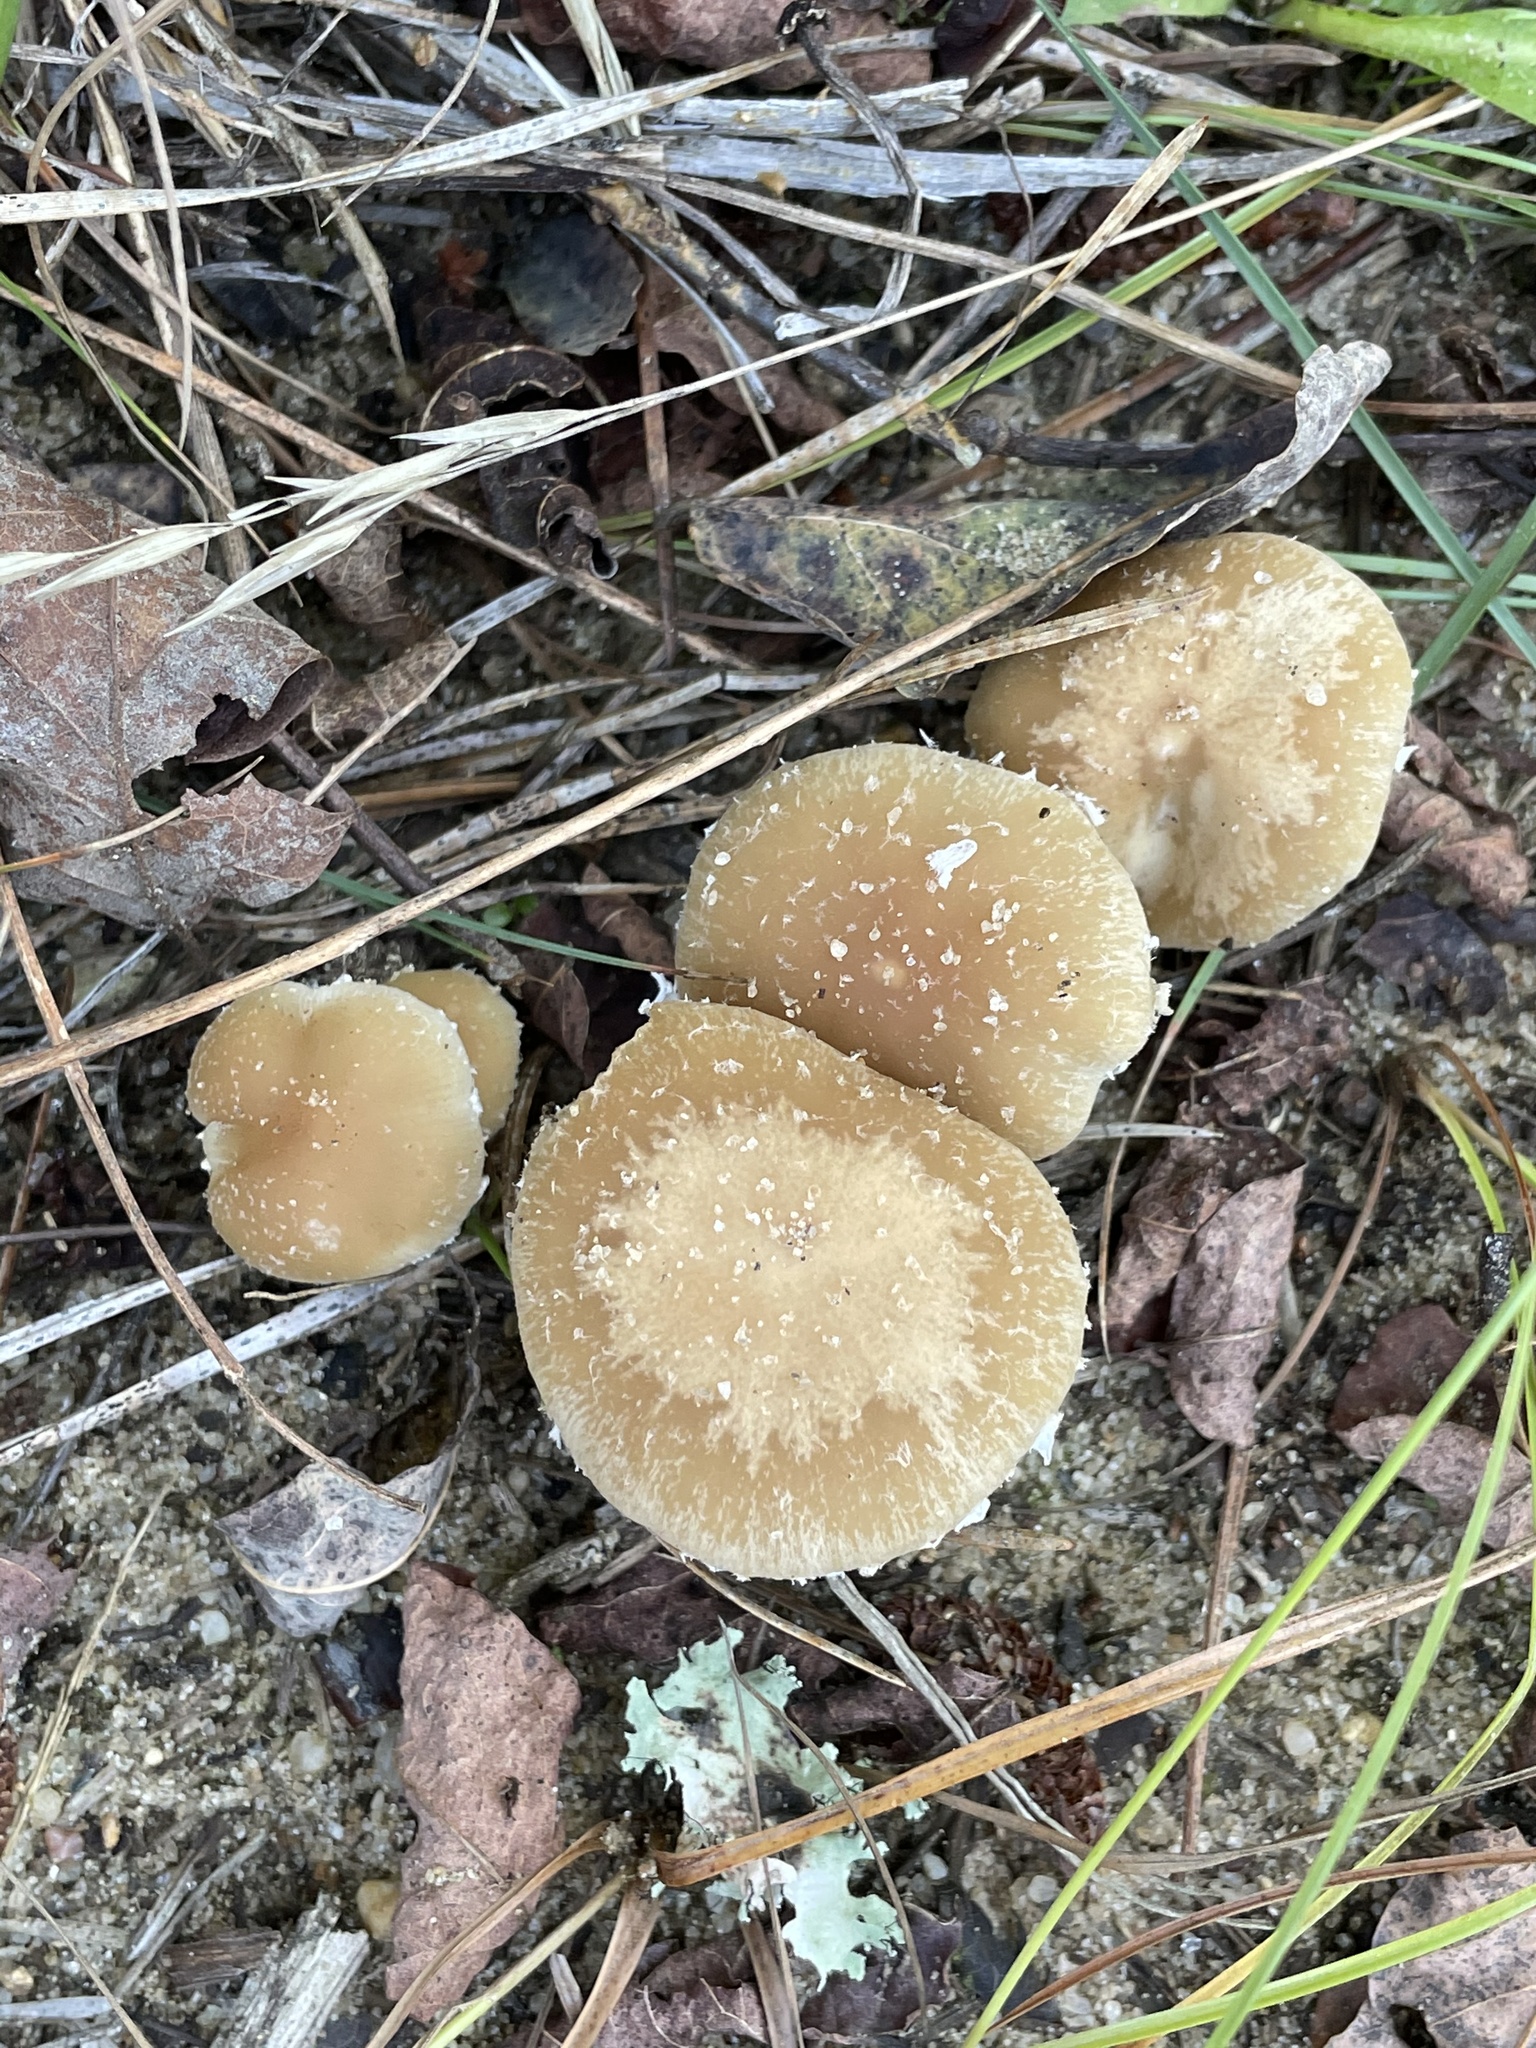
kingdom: Fungi
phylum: Basidiomycota
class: Agaricomycetes
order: Agaricales
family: Psathyrellaceae
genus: Candolleomyces
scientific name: Candolleomyces candolleanus
